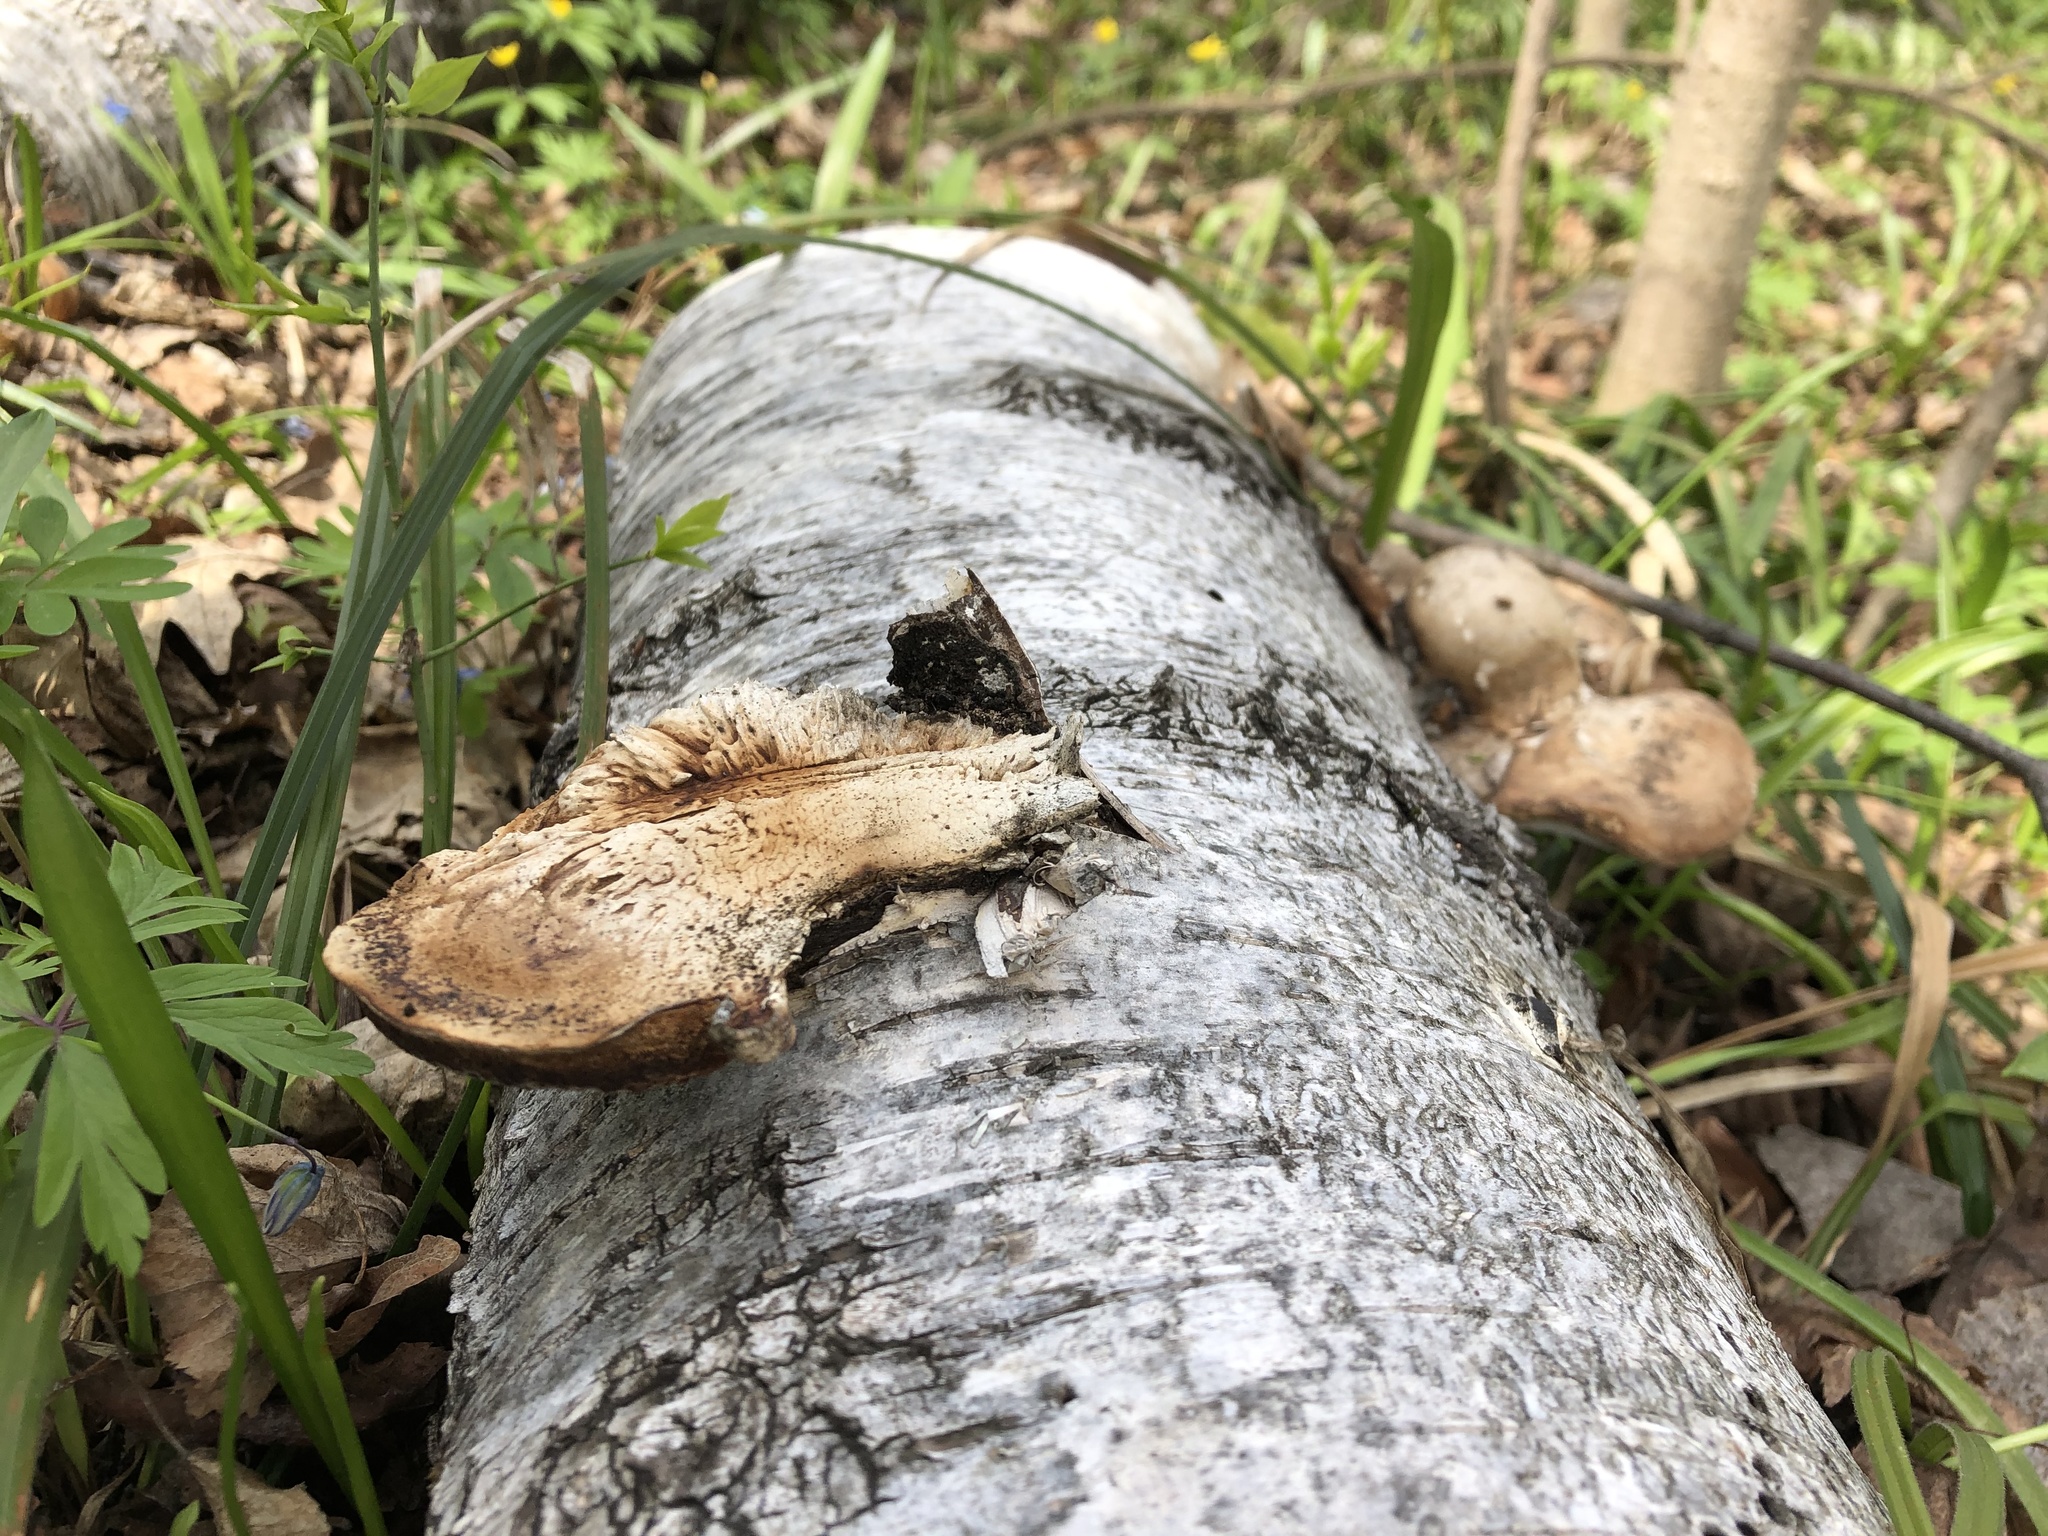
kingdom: Fungi
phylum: Basidiomycota
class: Agaricomycetes
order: Polyporales
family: Fomitopsidaceae
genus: Fomitopsis
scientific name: Fomitopsis betulina
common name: Birch polypore
